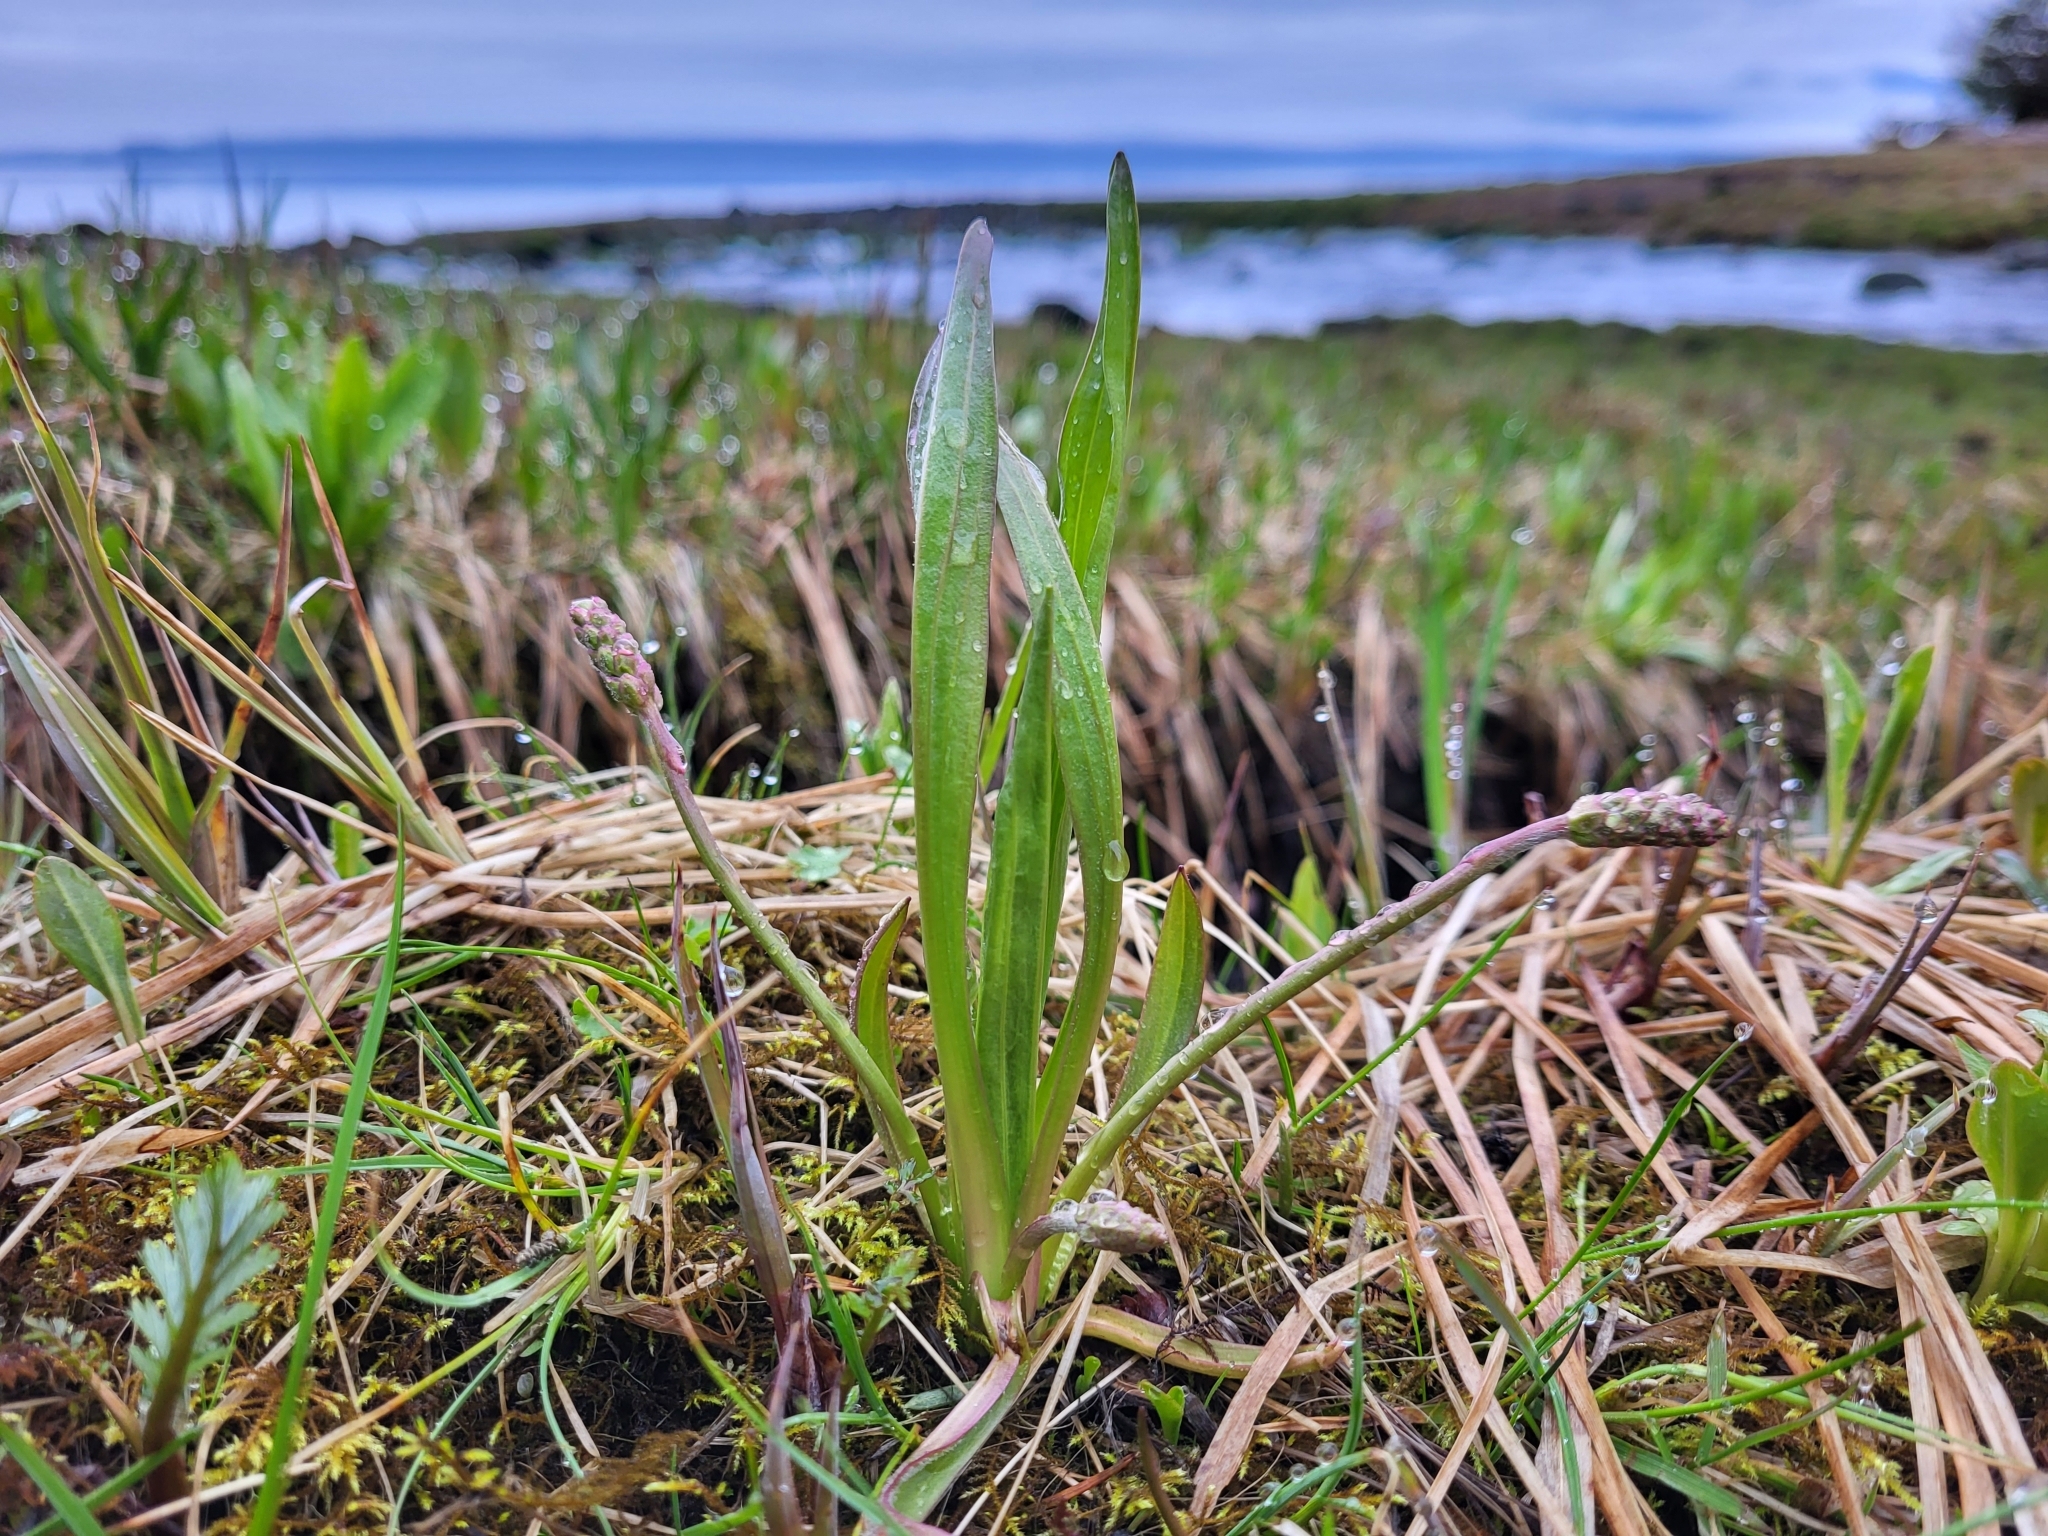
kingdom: Plantae
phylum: Tracheophyta
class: Magnoliopsida
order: Lamiales
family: Plantaginaceae
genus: Plantago
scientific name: Plantago macrocarpa
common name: Alaska plantain
